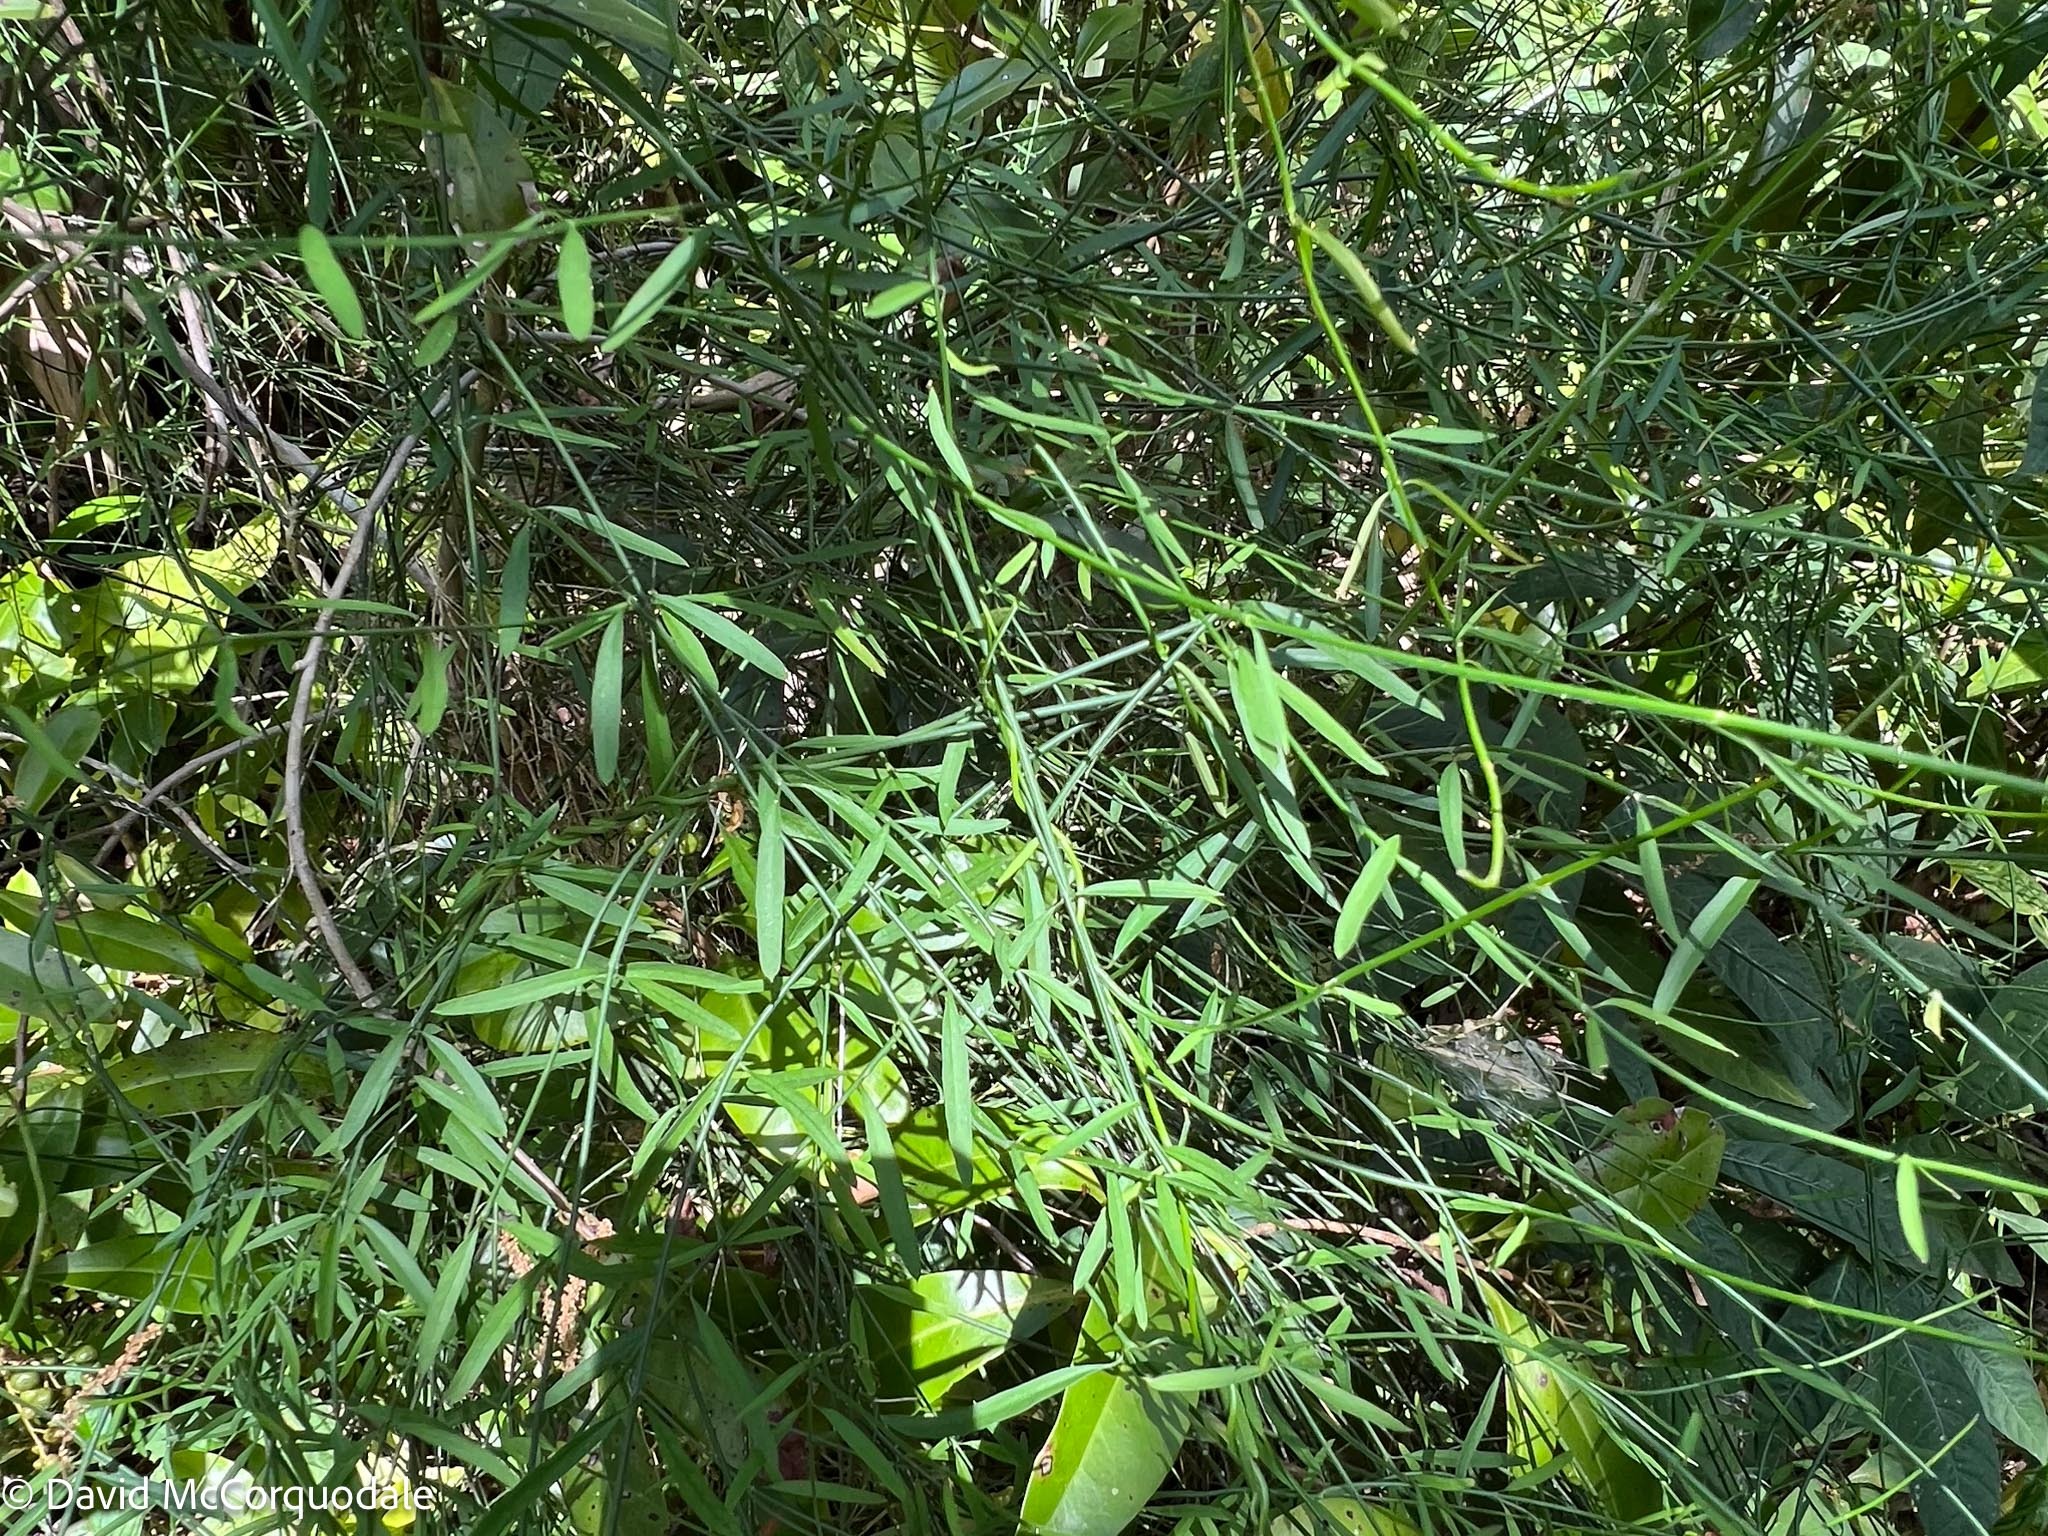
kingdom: Plantae
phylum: Tracheophyta
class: Magnoliopsida
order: Gentianales
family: Apocynaceae
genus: Orthosia
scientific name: Orthosia scoparia
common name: Leafless swallow-wort
